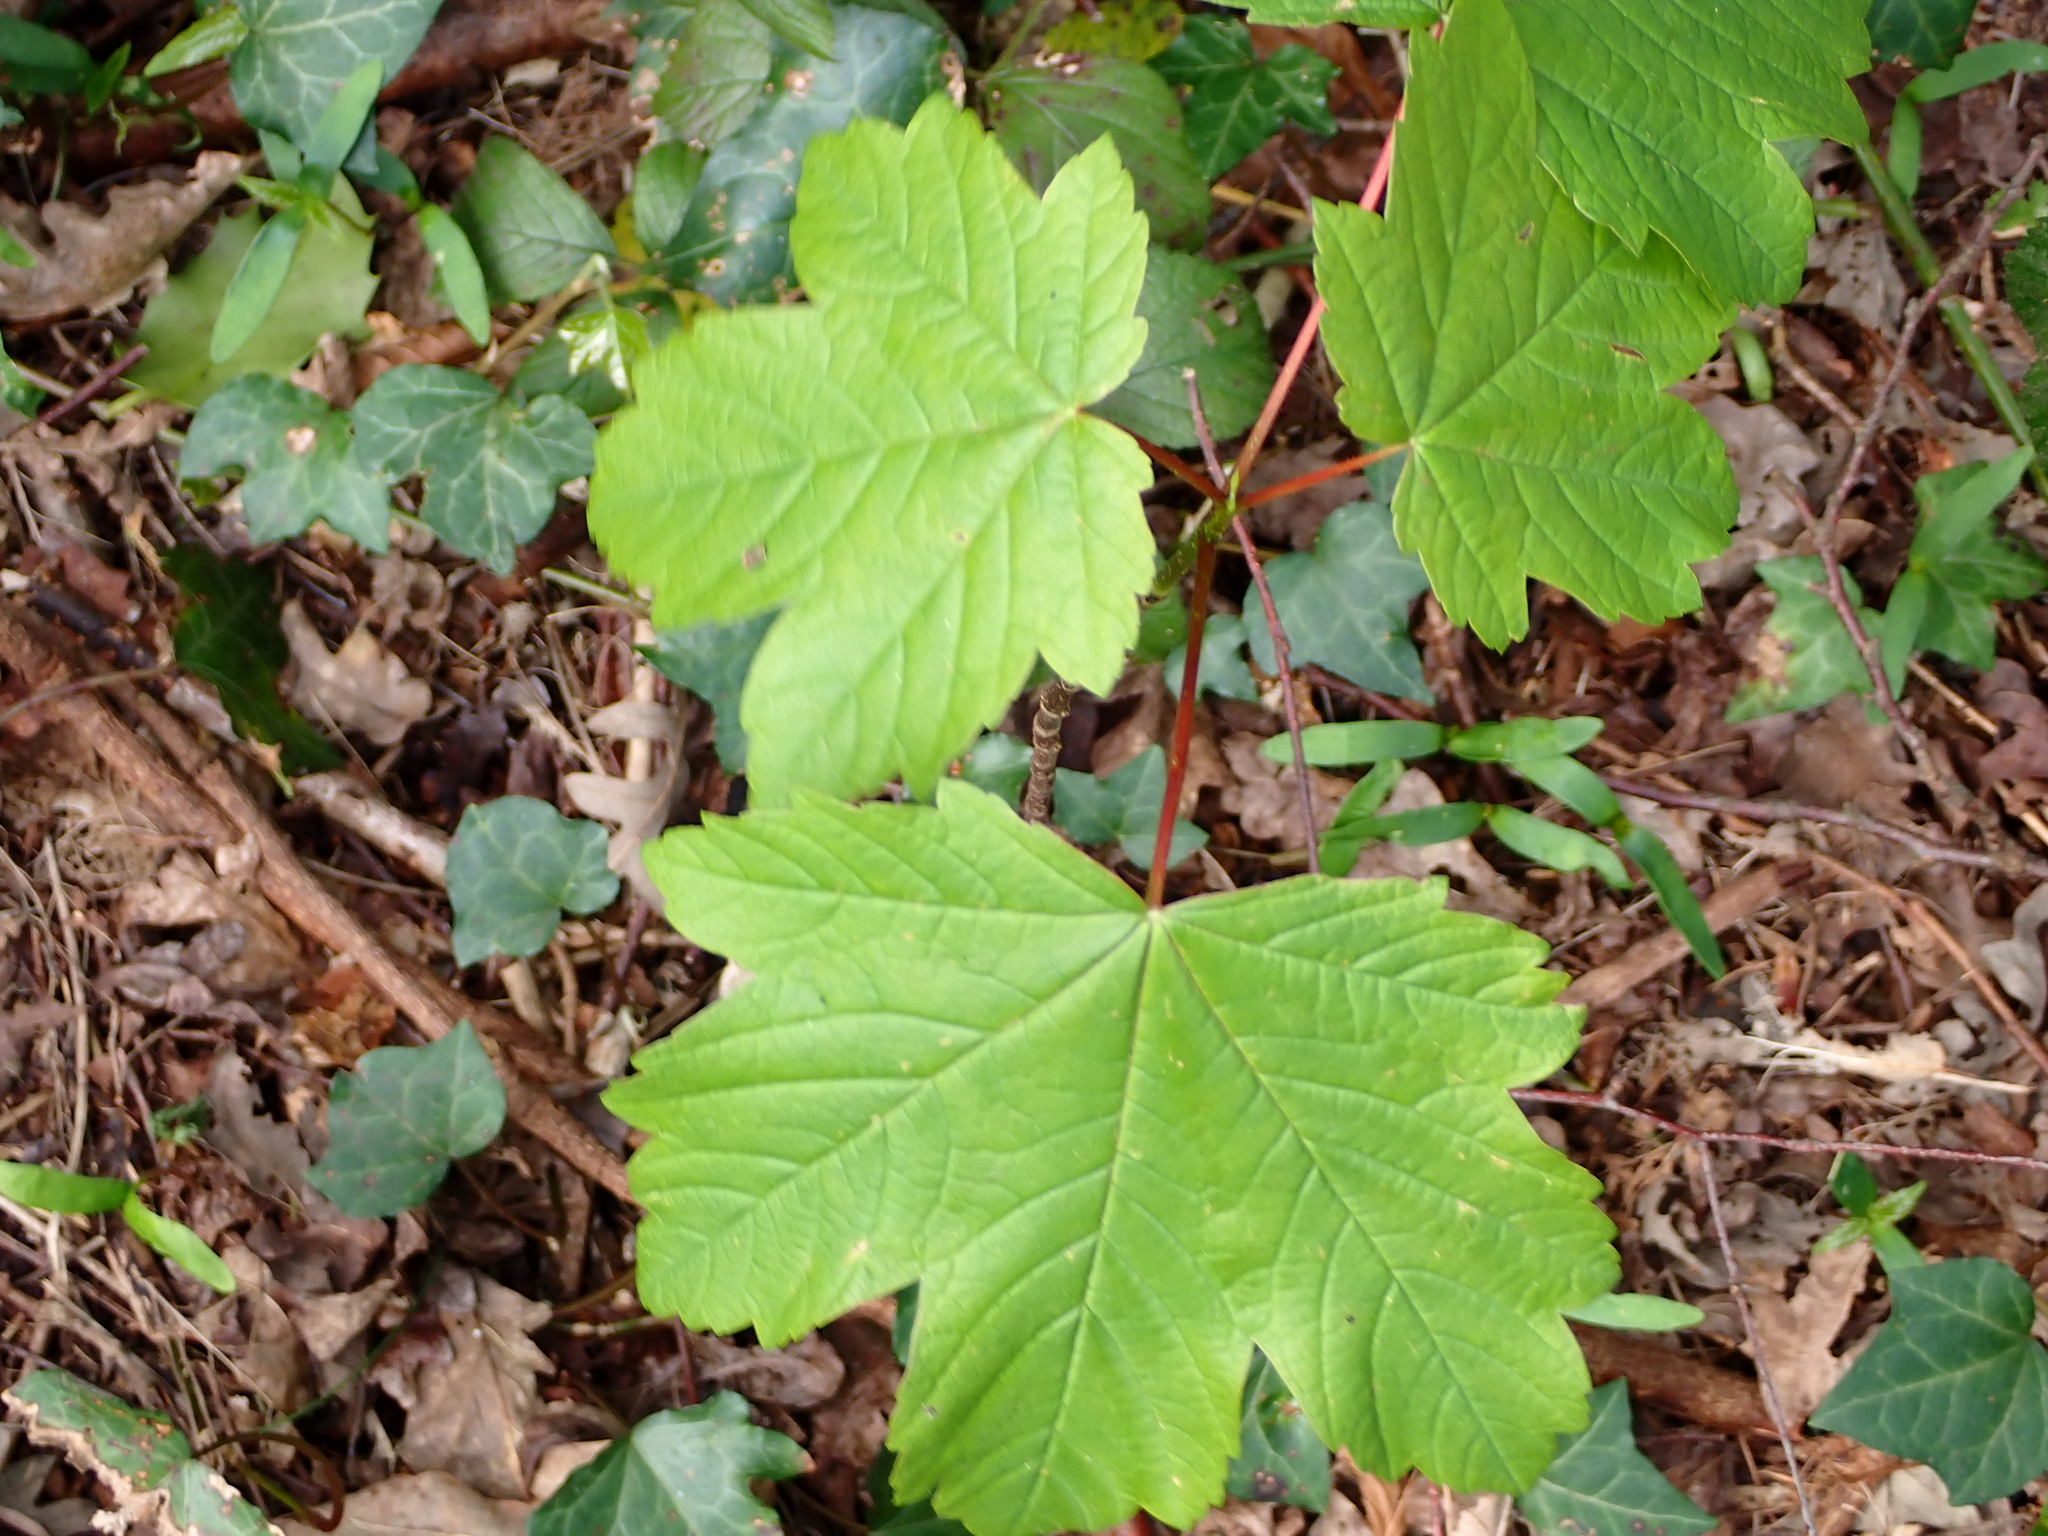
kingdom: Plantae
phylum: Tracheophyta
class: Magnoliopsida
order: Sapindales
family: Sapindaceae
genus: Acer
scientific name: Acer pseudoplatanus
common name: Sycamore
